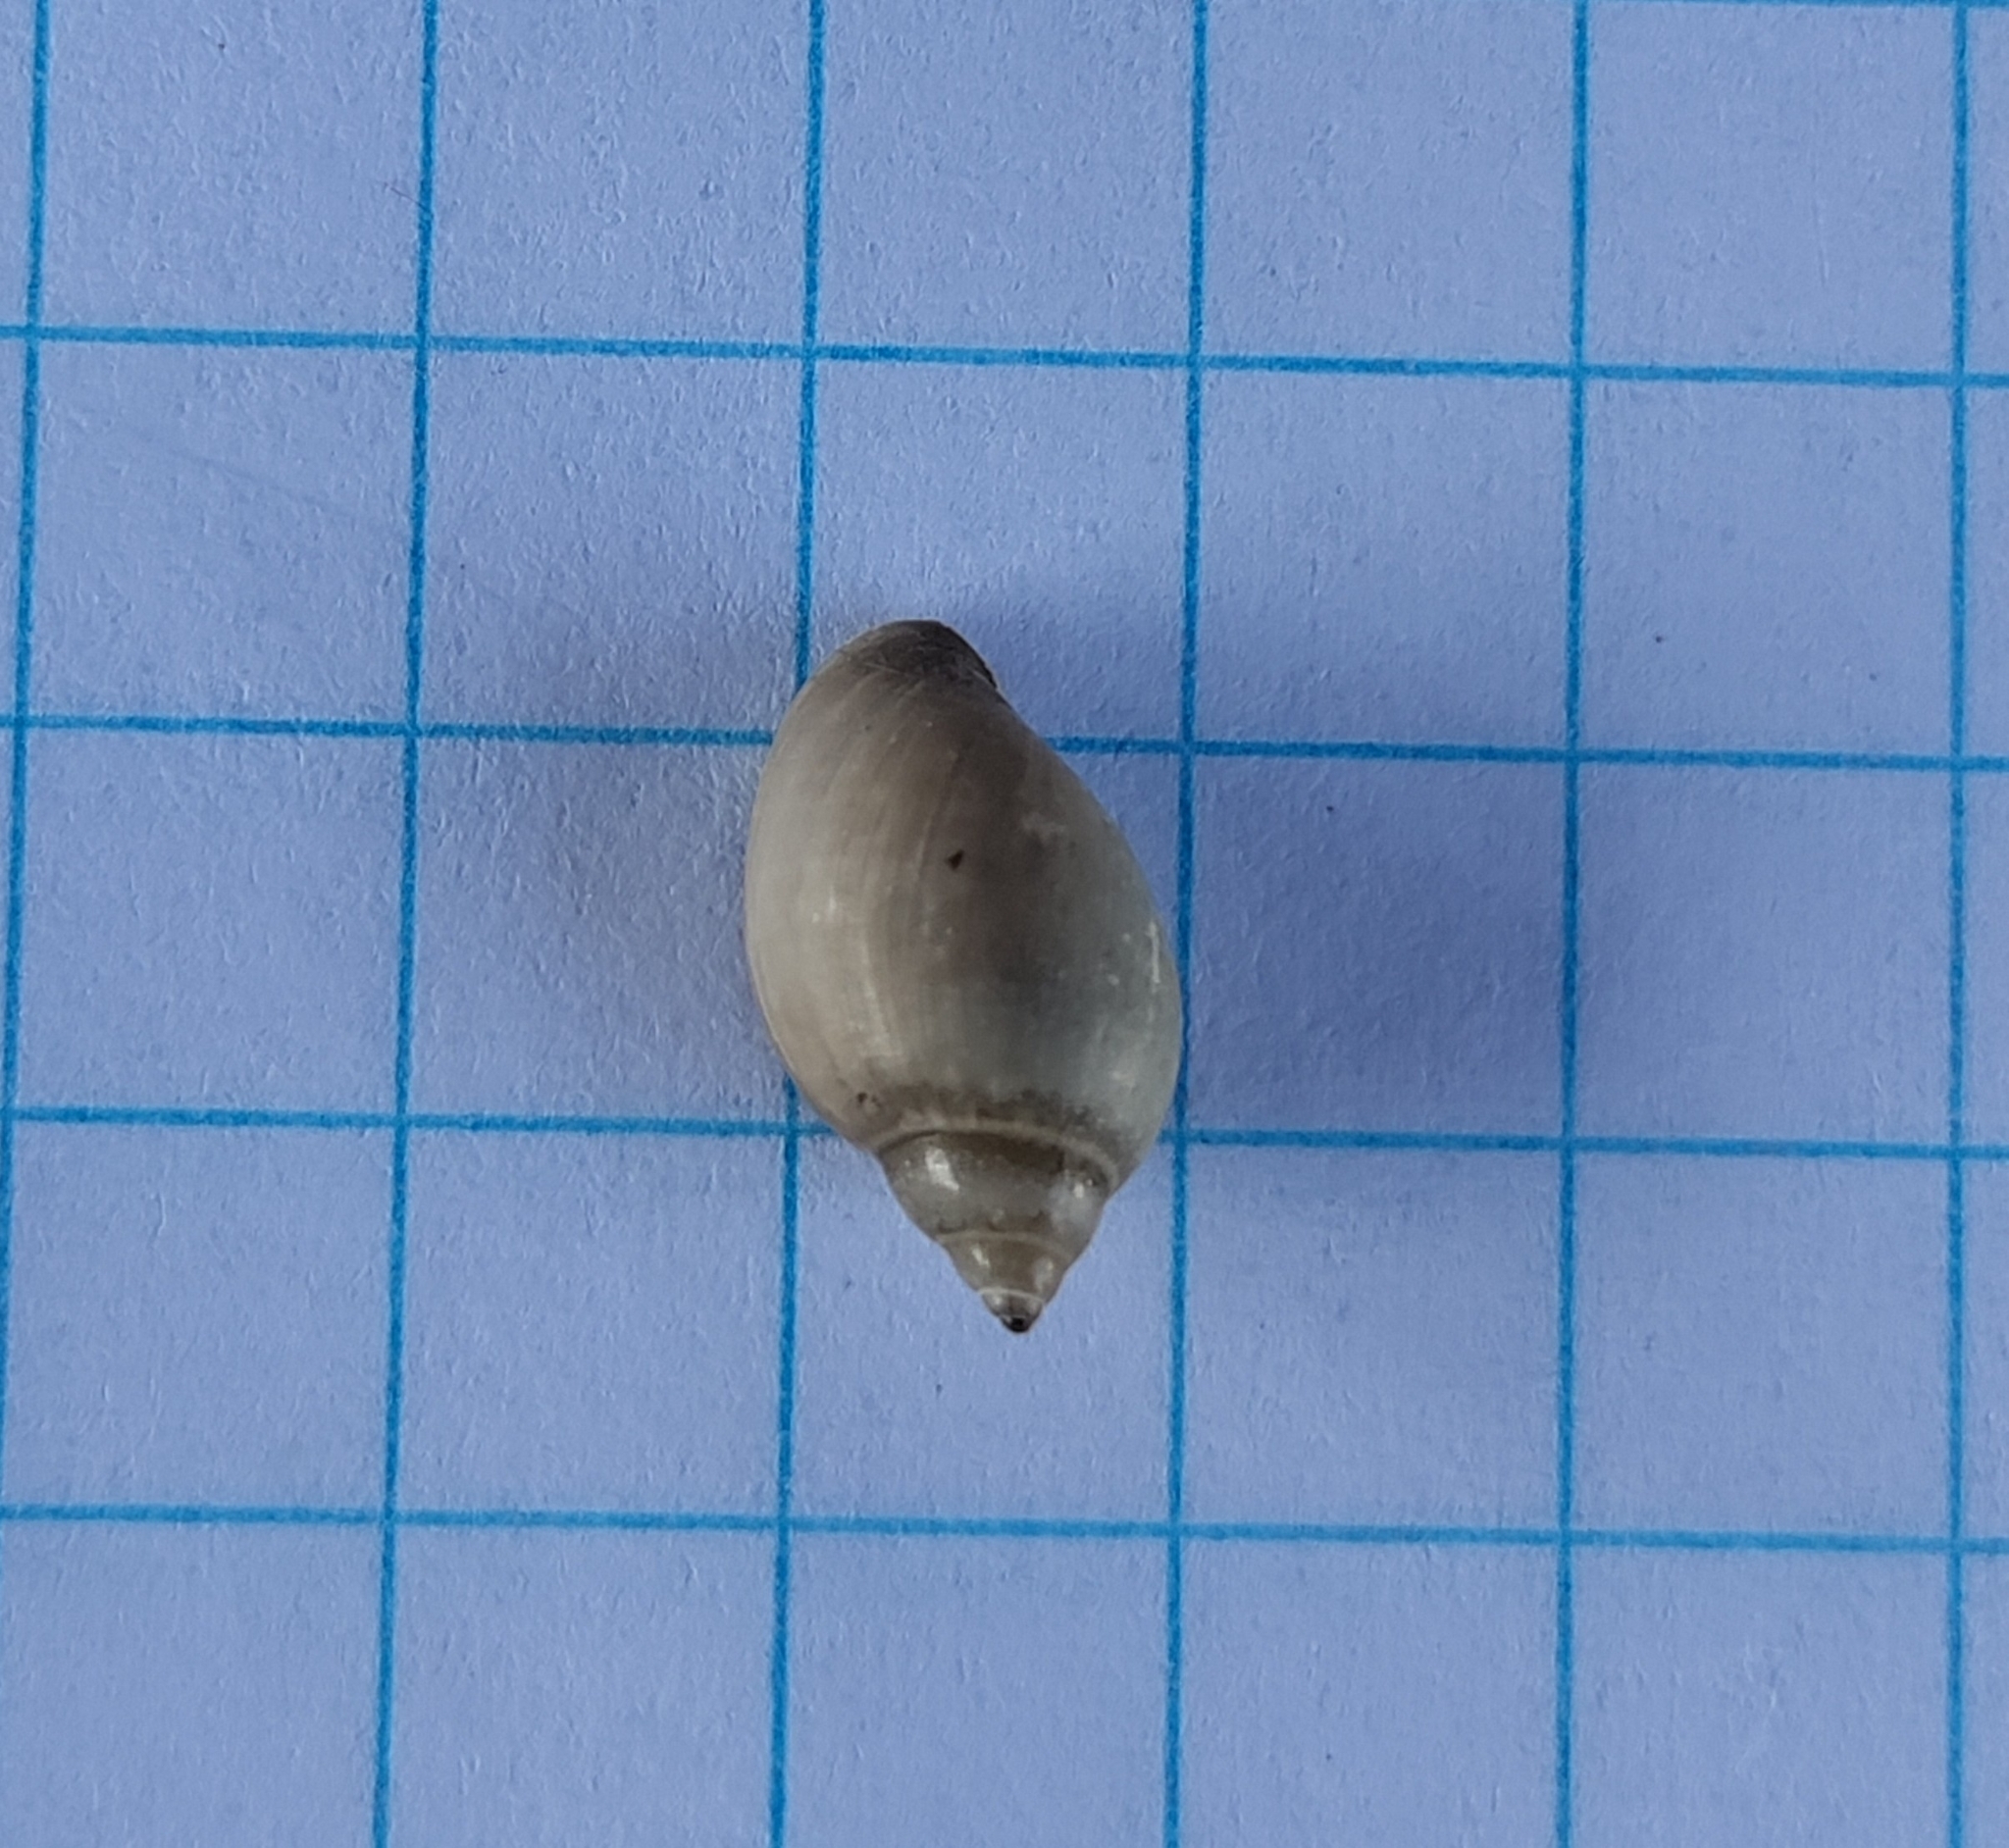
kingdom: Animalia
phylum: Mollusca
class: Gastropoda
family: Physidae
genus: Physella
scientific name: Physella acuta
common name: European physa
